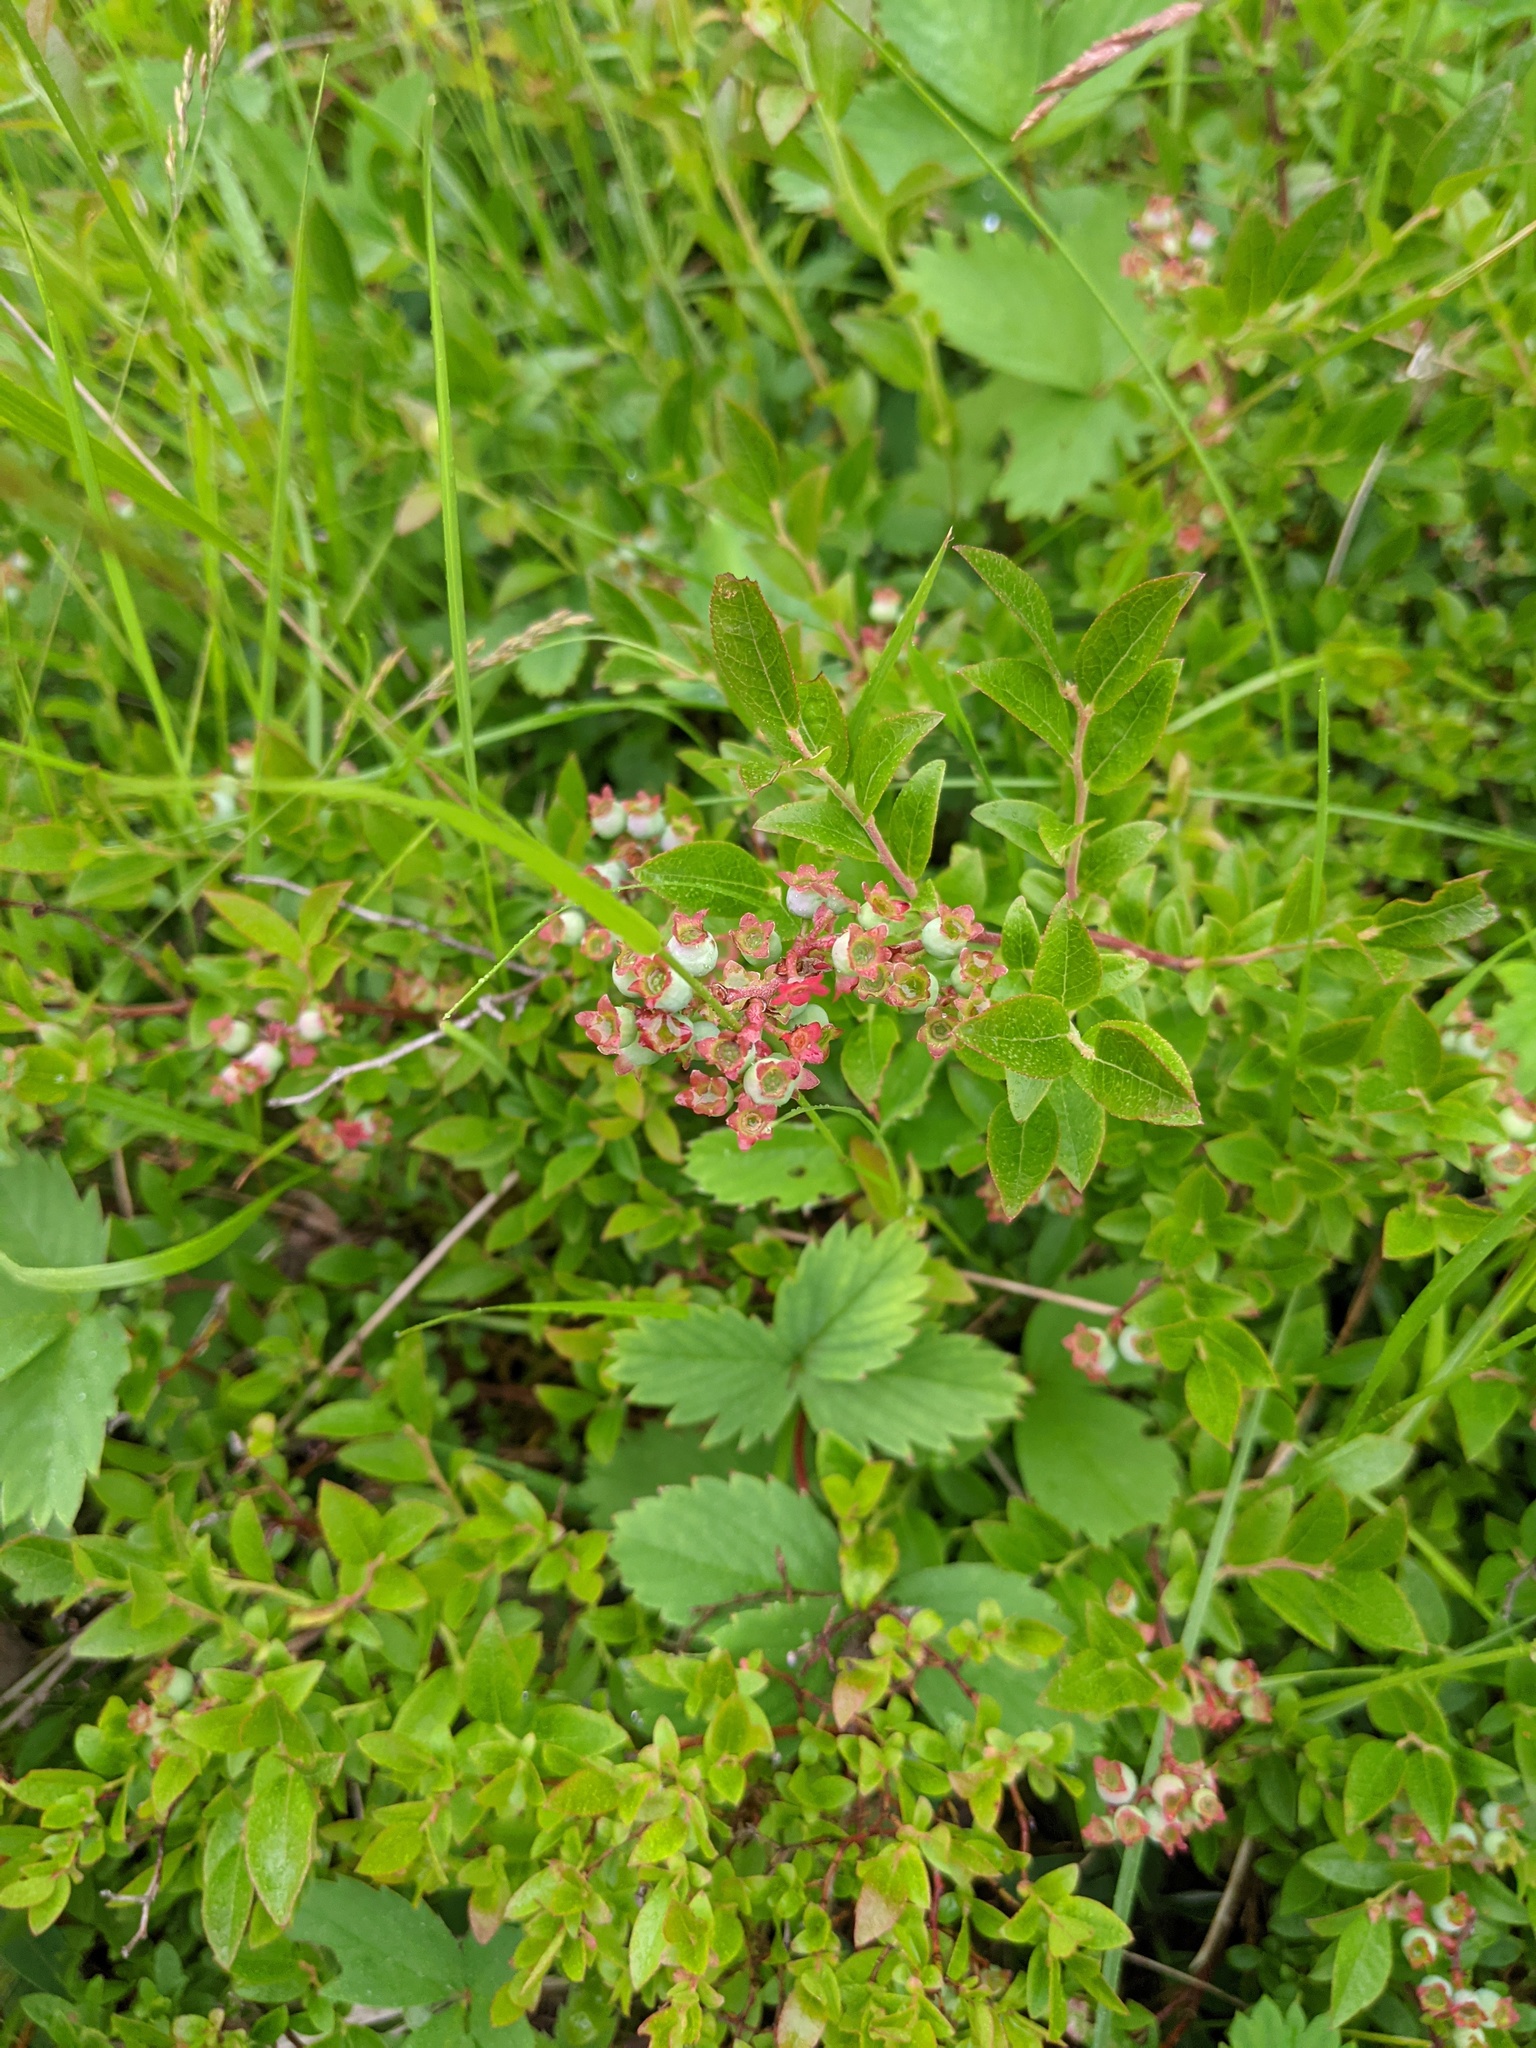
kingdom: Plantae
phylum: Tracheophyta
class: Magnoliopsida
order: Ericales
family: Ericaceae
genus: Vaccinium
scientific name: Vaccinium angustifolium
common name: Early lowbush blueberry
